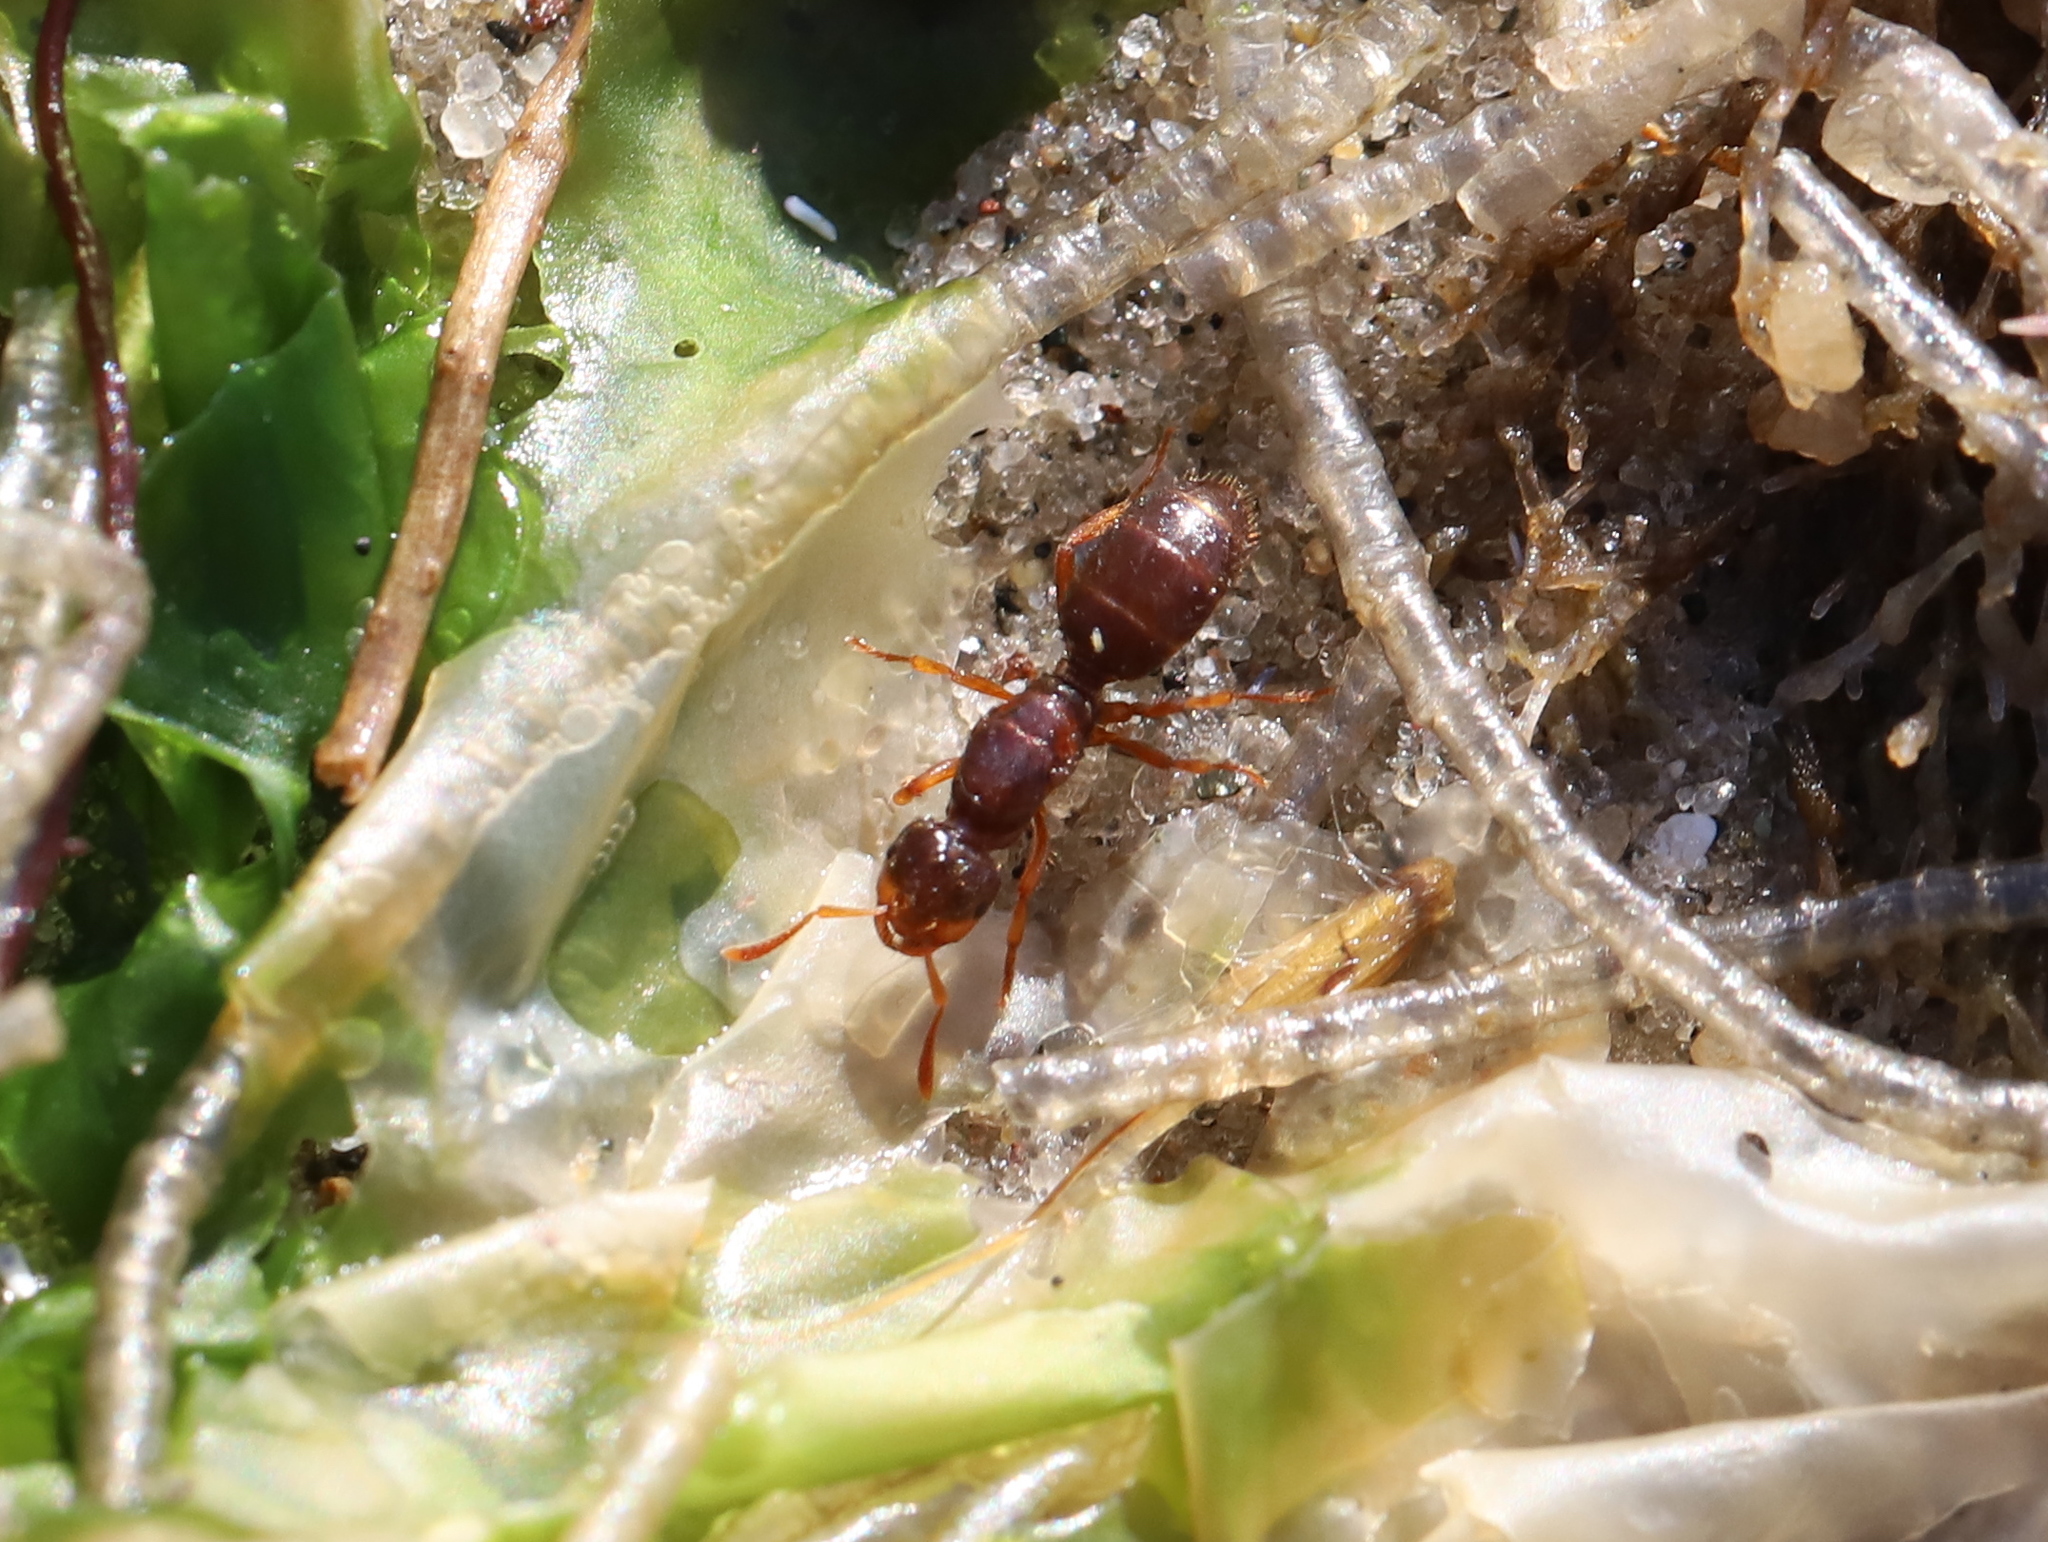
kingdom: Animalia
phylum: Arthropoda
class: Insecta
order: Hymenoptera
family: Formicidae
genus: Lasius
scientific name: Lasius claviger
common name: Common citronella ant
